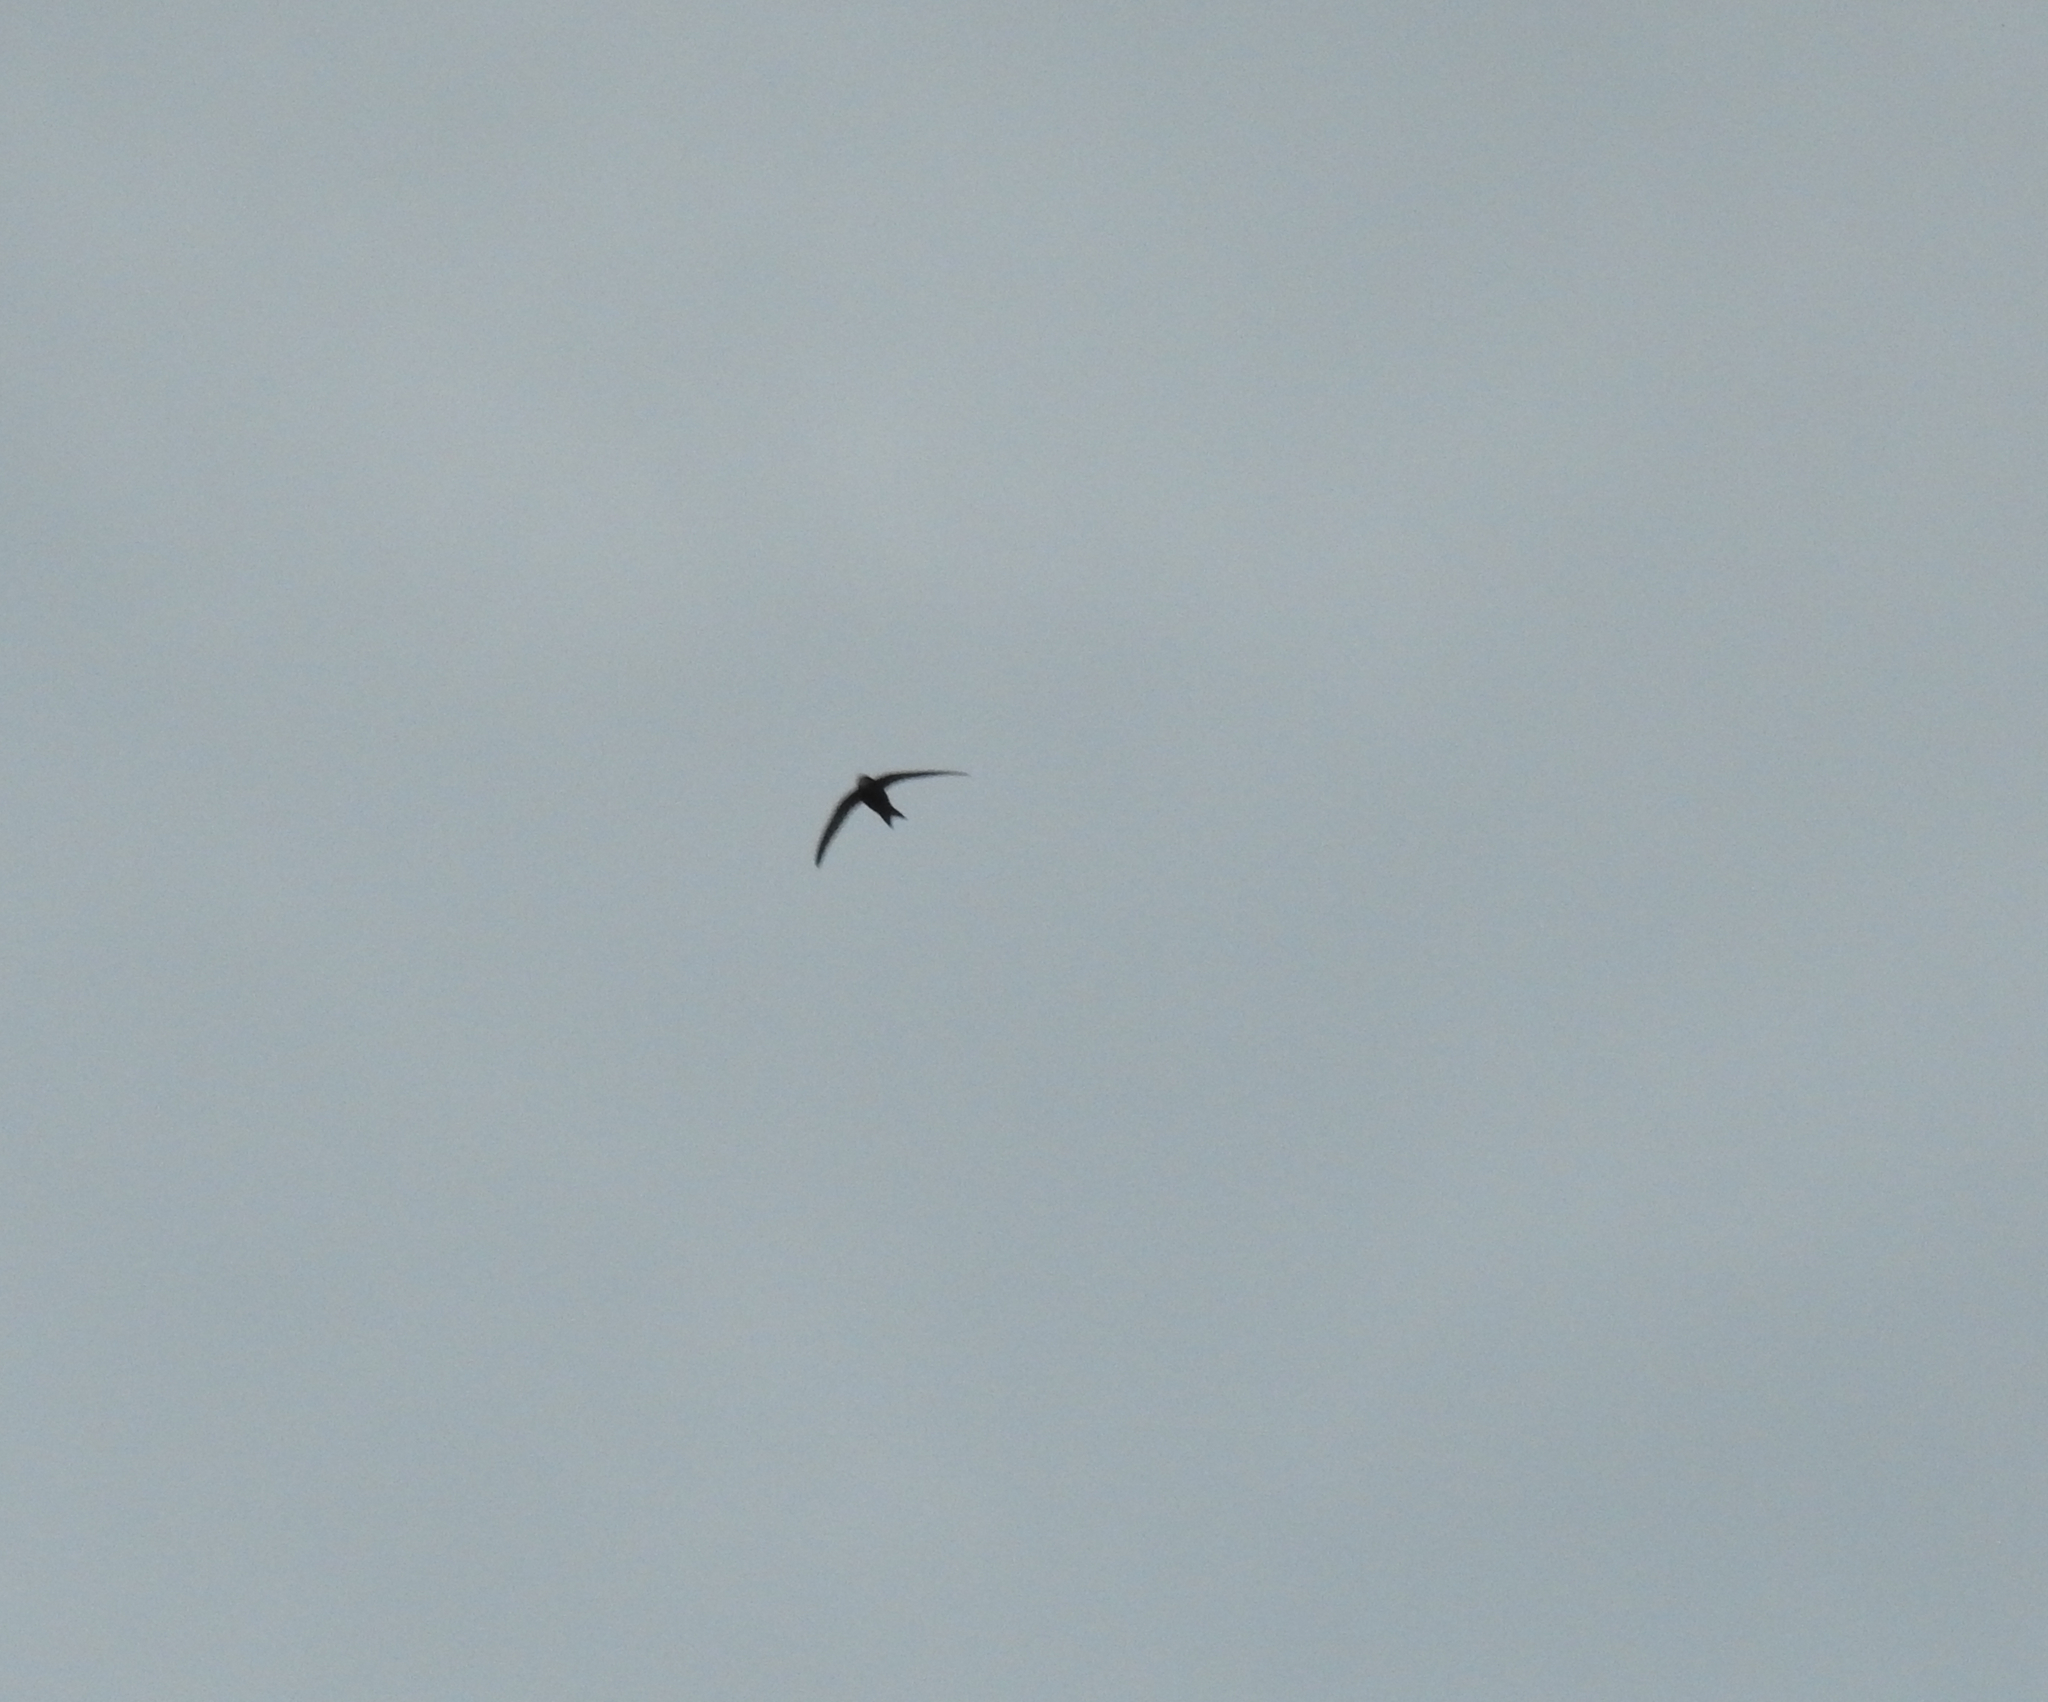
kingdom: Animalia
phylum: Chordata
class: Aves
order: Apodiformes
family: Apodidae
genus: Apus
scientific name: Apus apus
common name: Common swift
